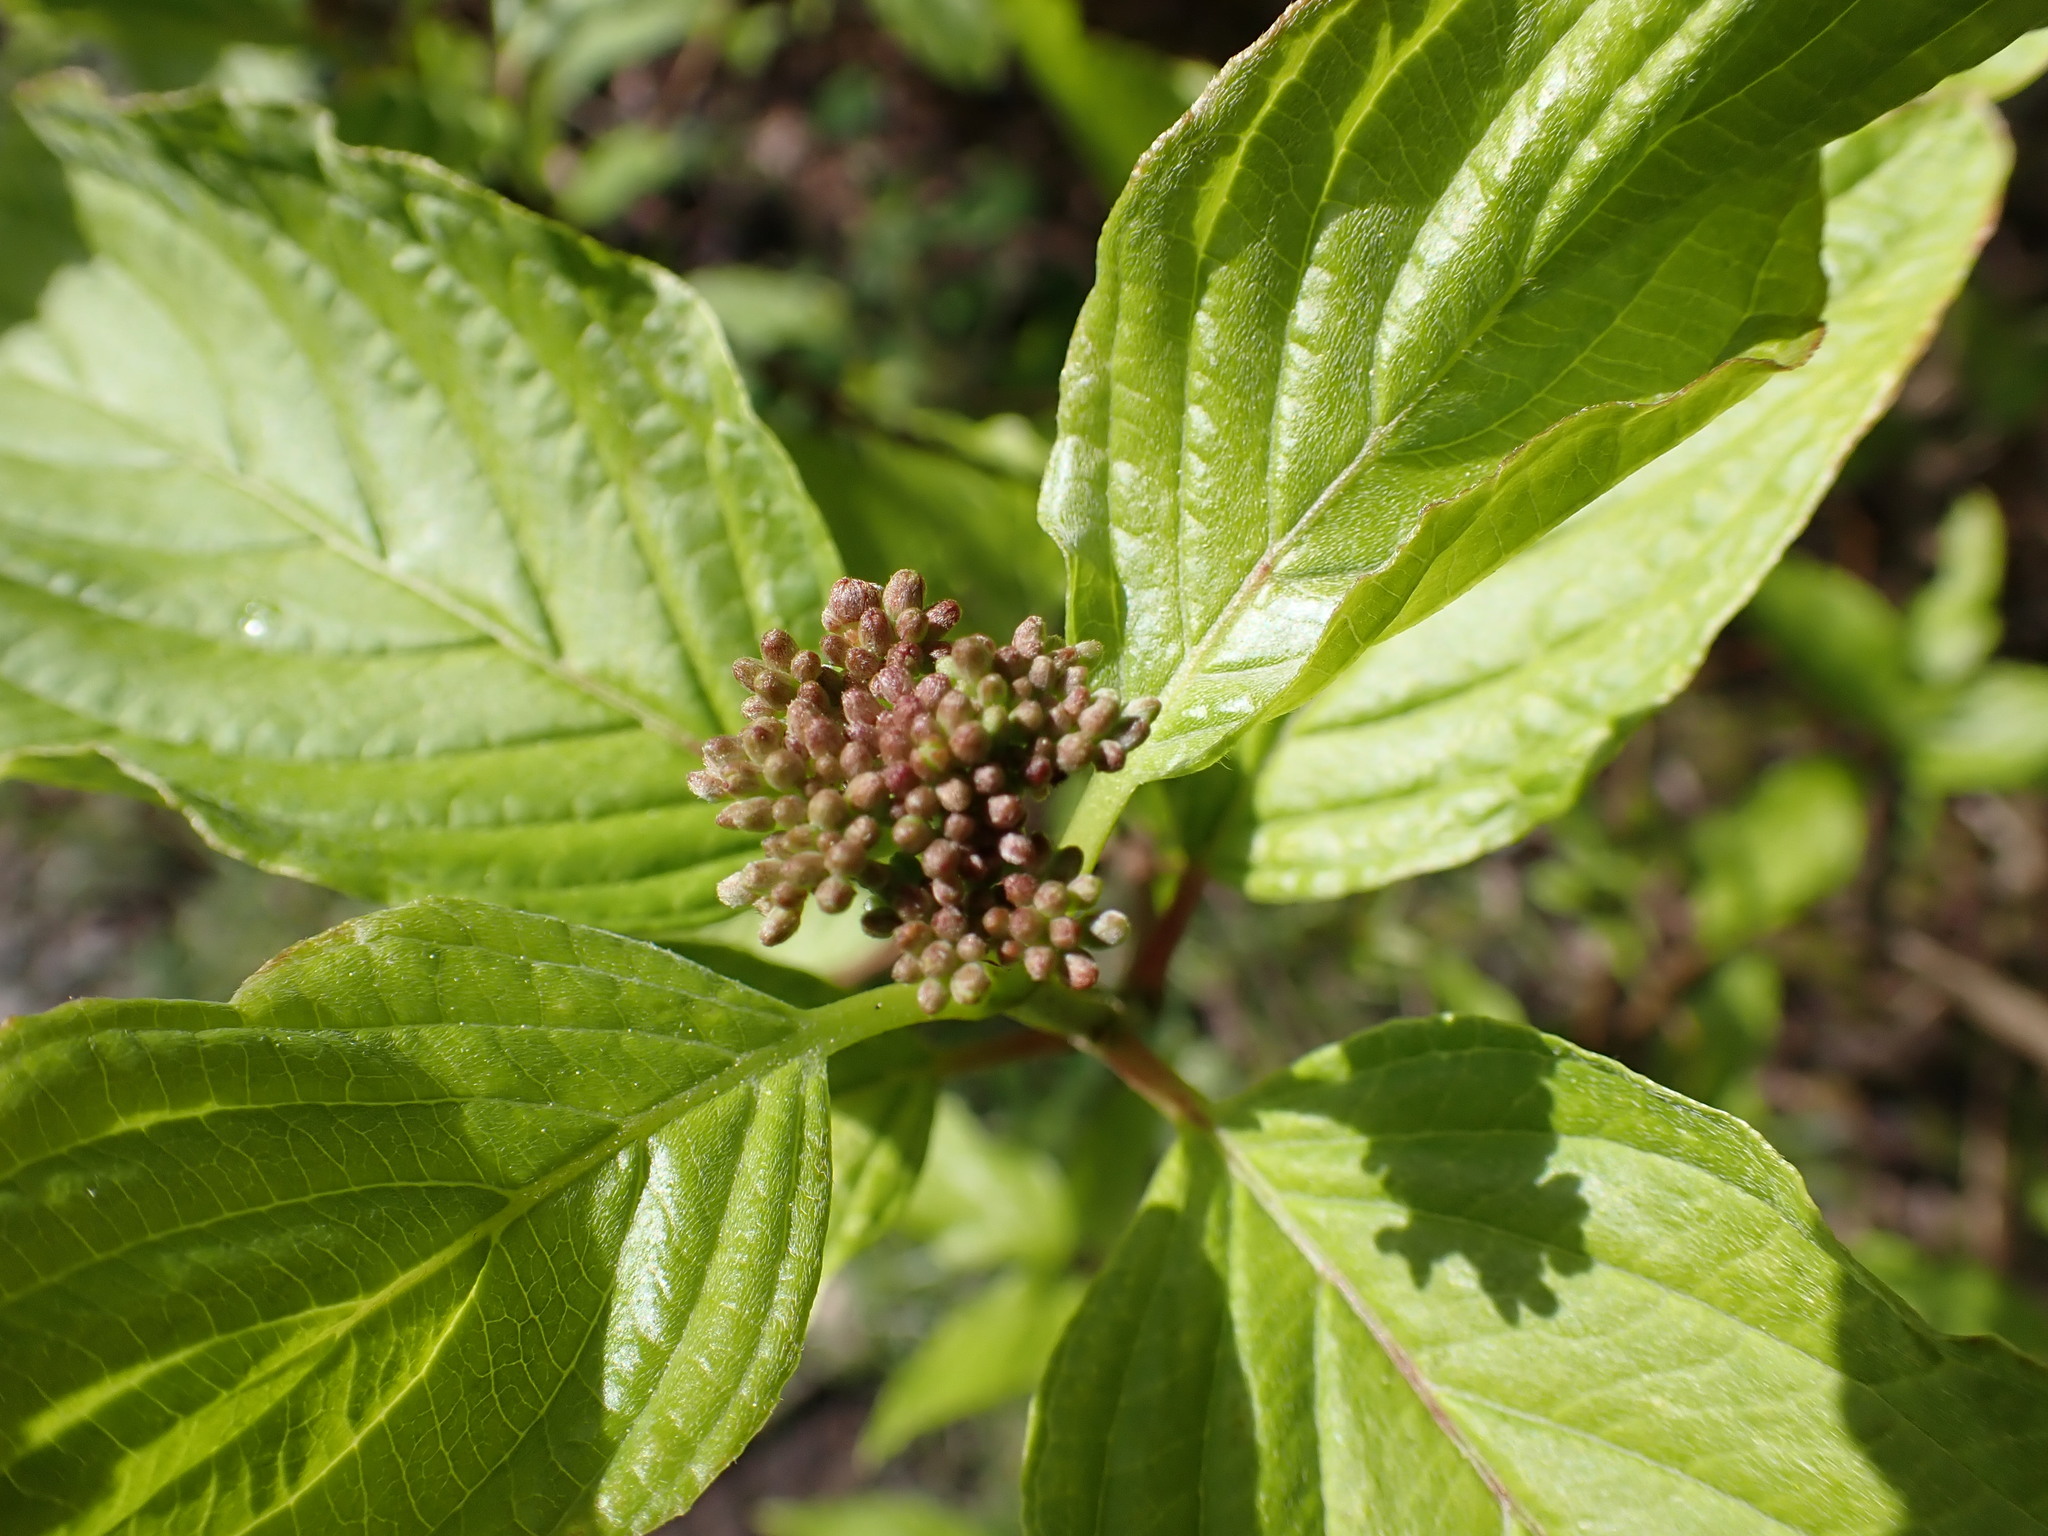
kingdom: Plantae
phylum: Tracheophyta
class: Magnoliopsida
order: Cornales
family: Cornaceae
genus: Cornus
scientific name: Cornus sericea
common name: Red-osier dogwood
